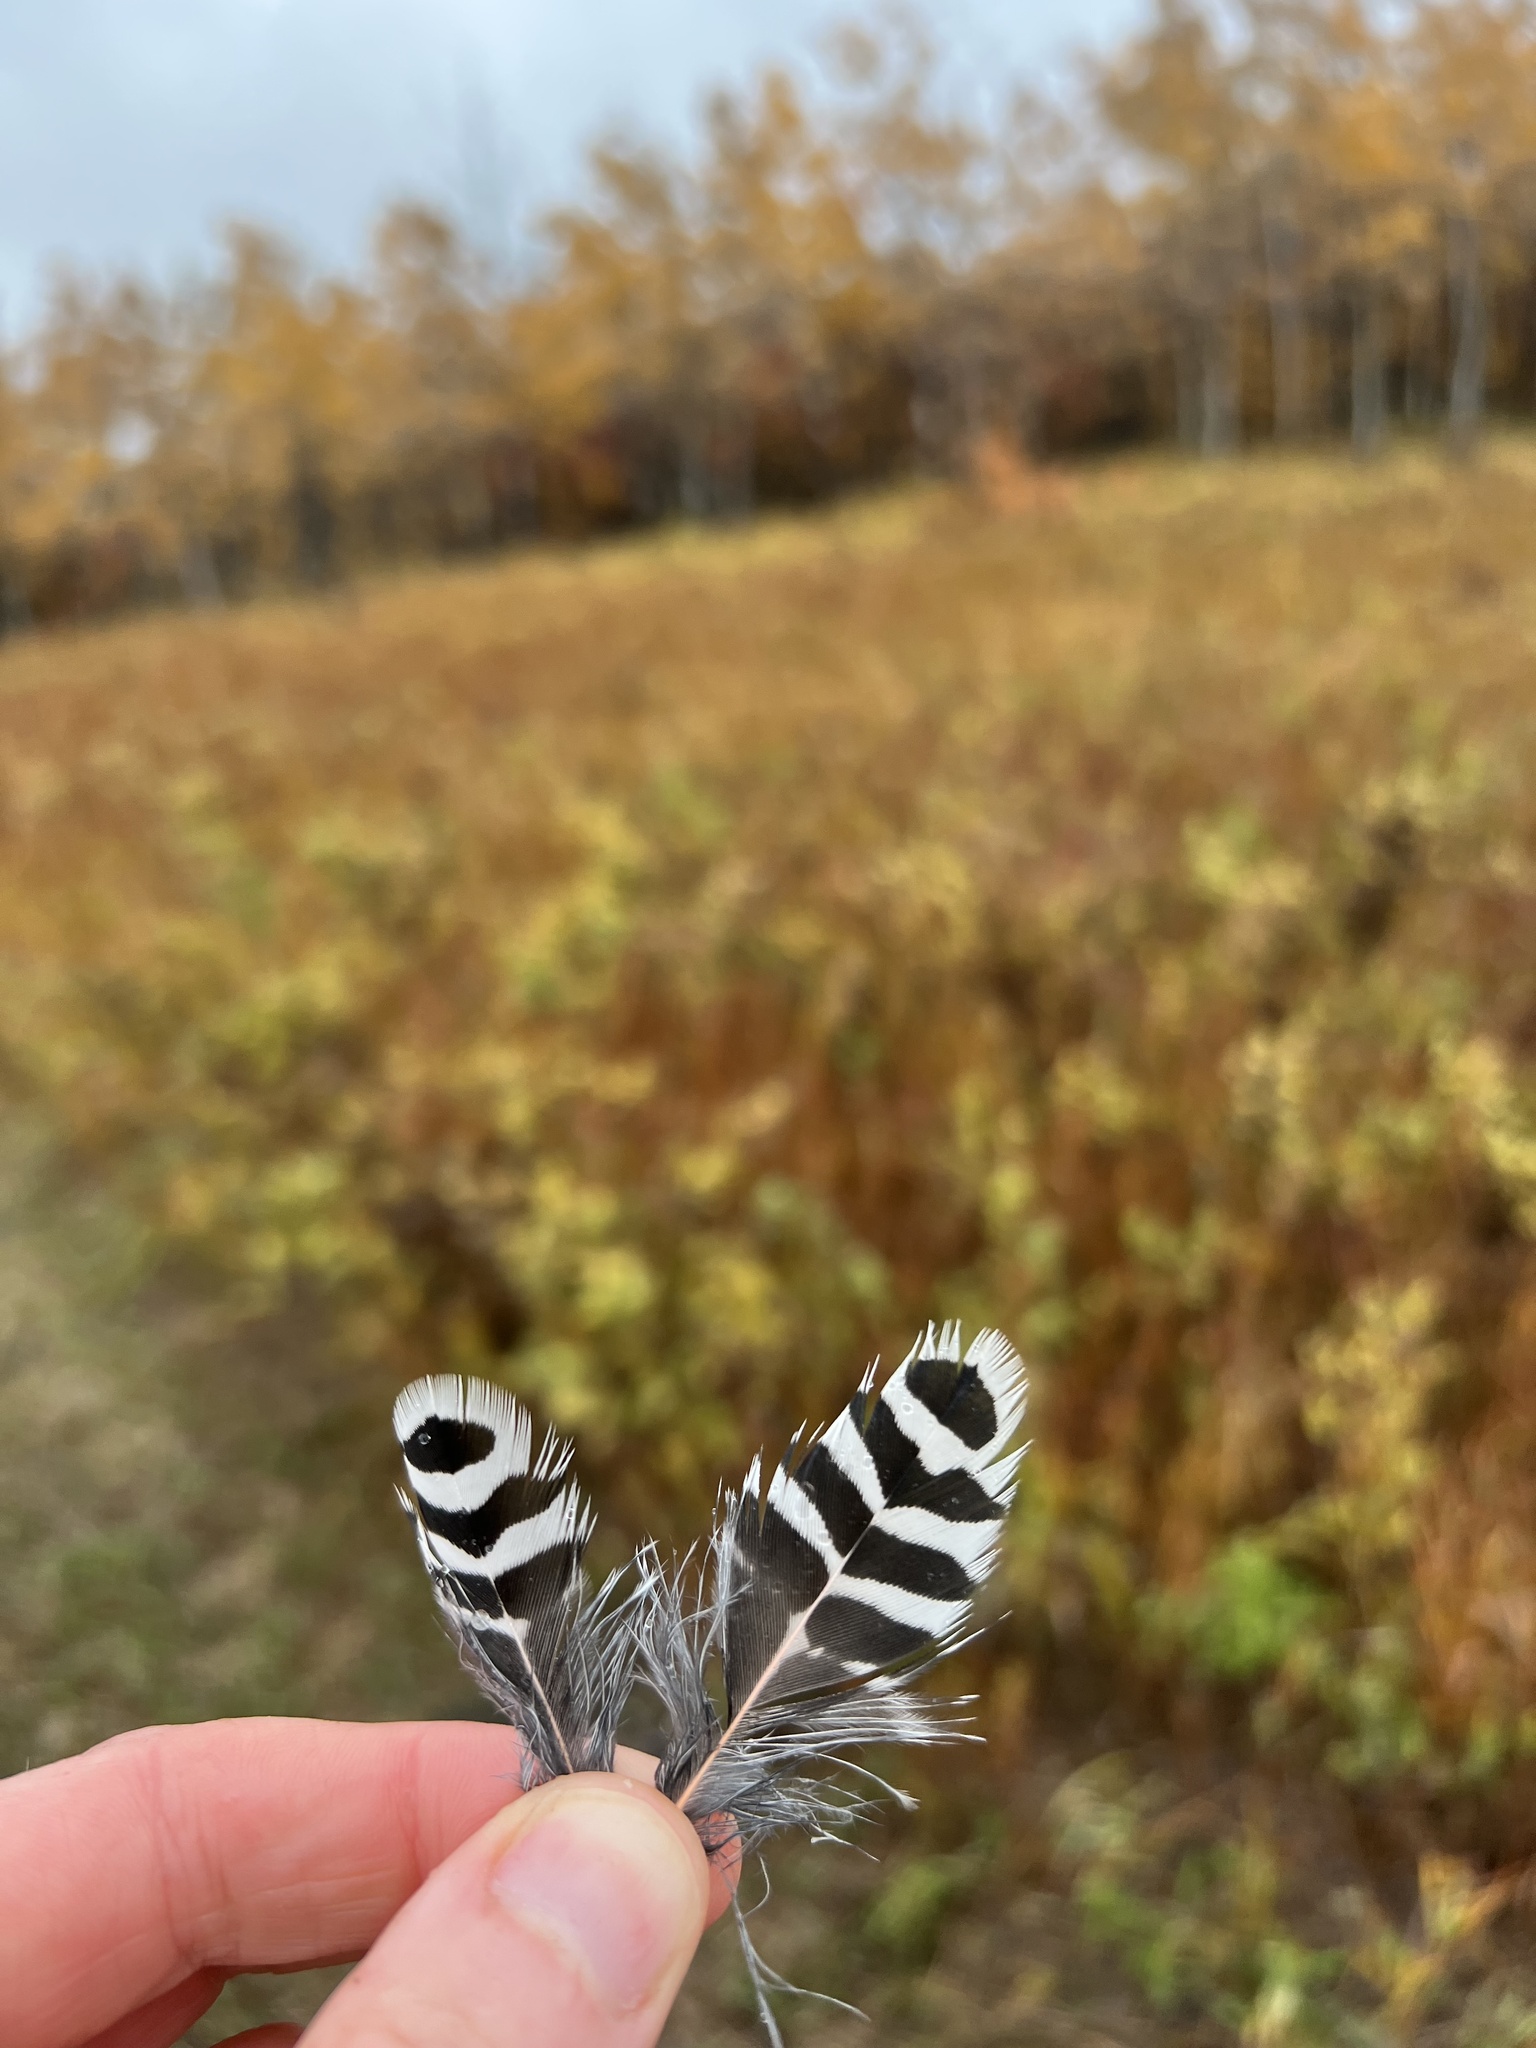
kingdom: Animalia
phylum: Chordata
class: Aves
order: Piciformes
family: Picidae
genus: Colaptes
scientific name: Colaptes auratus
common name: Northern flicker
